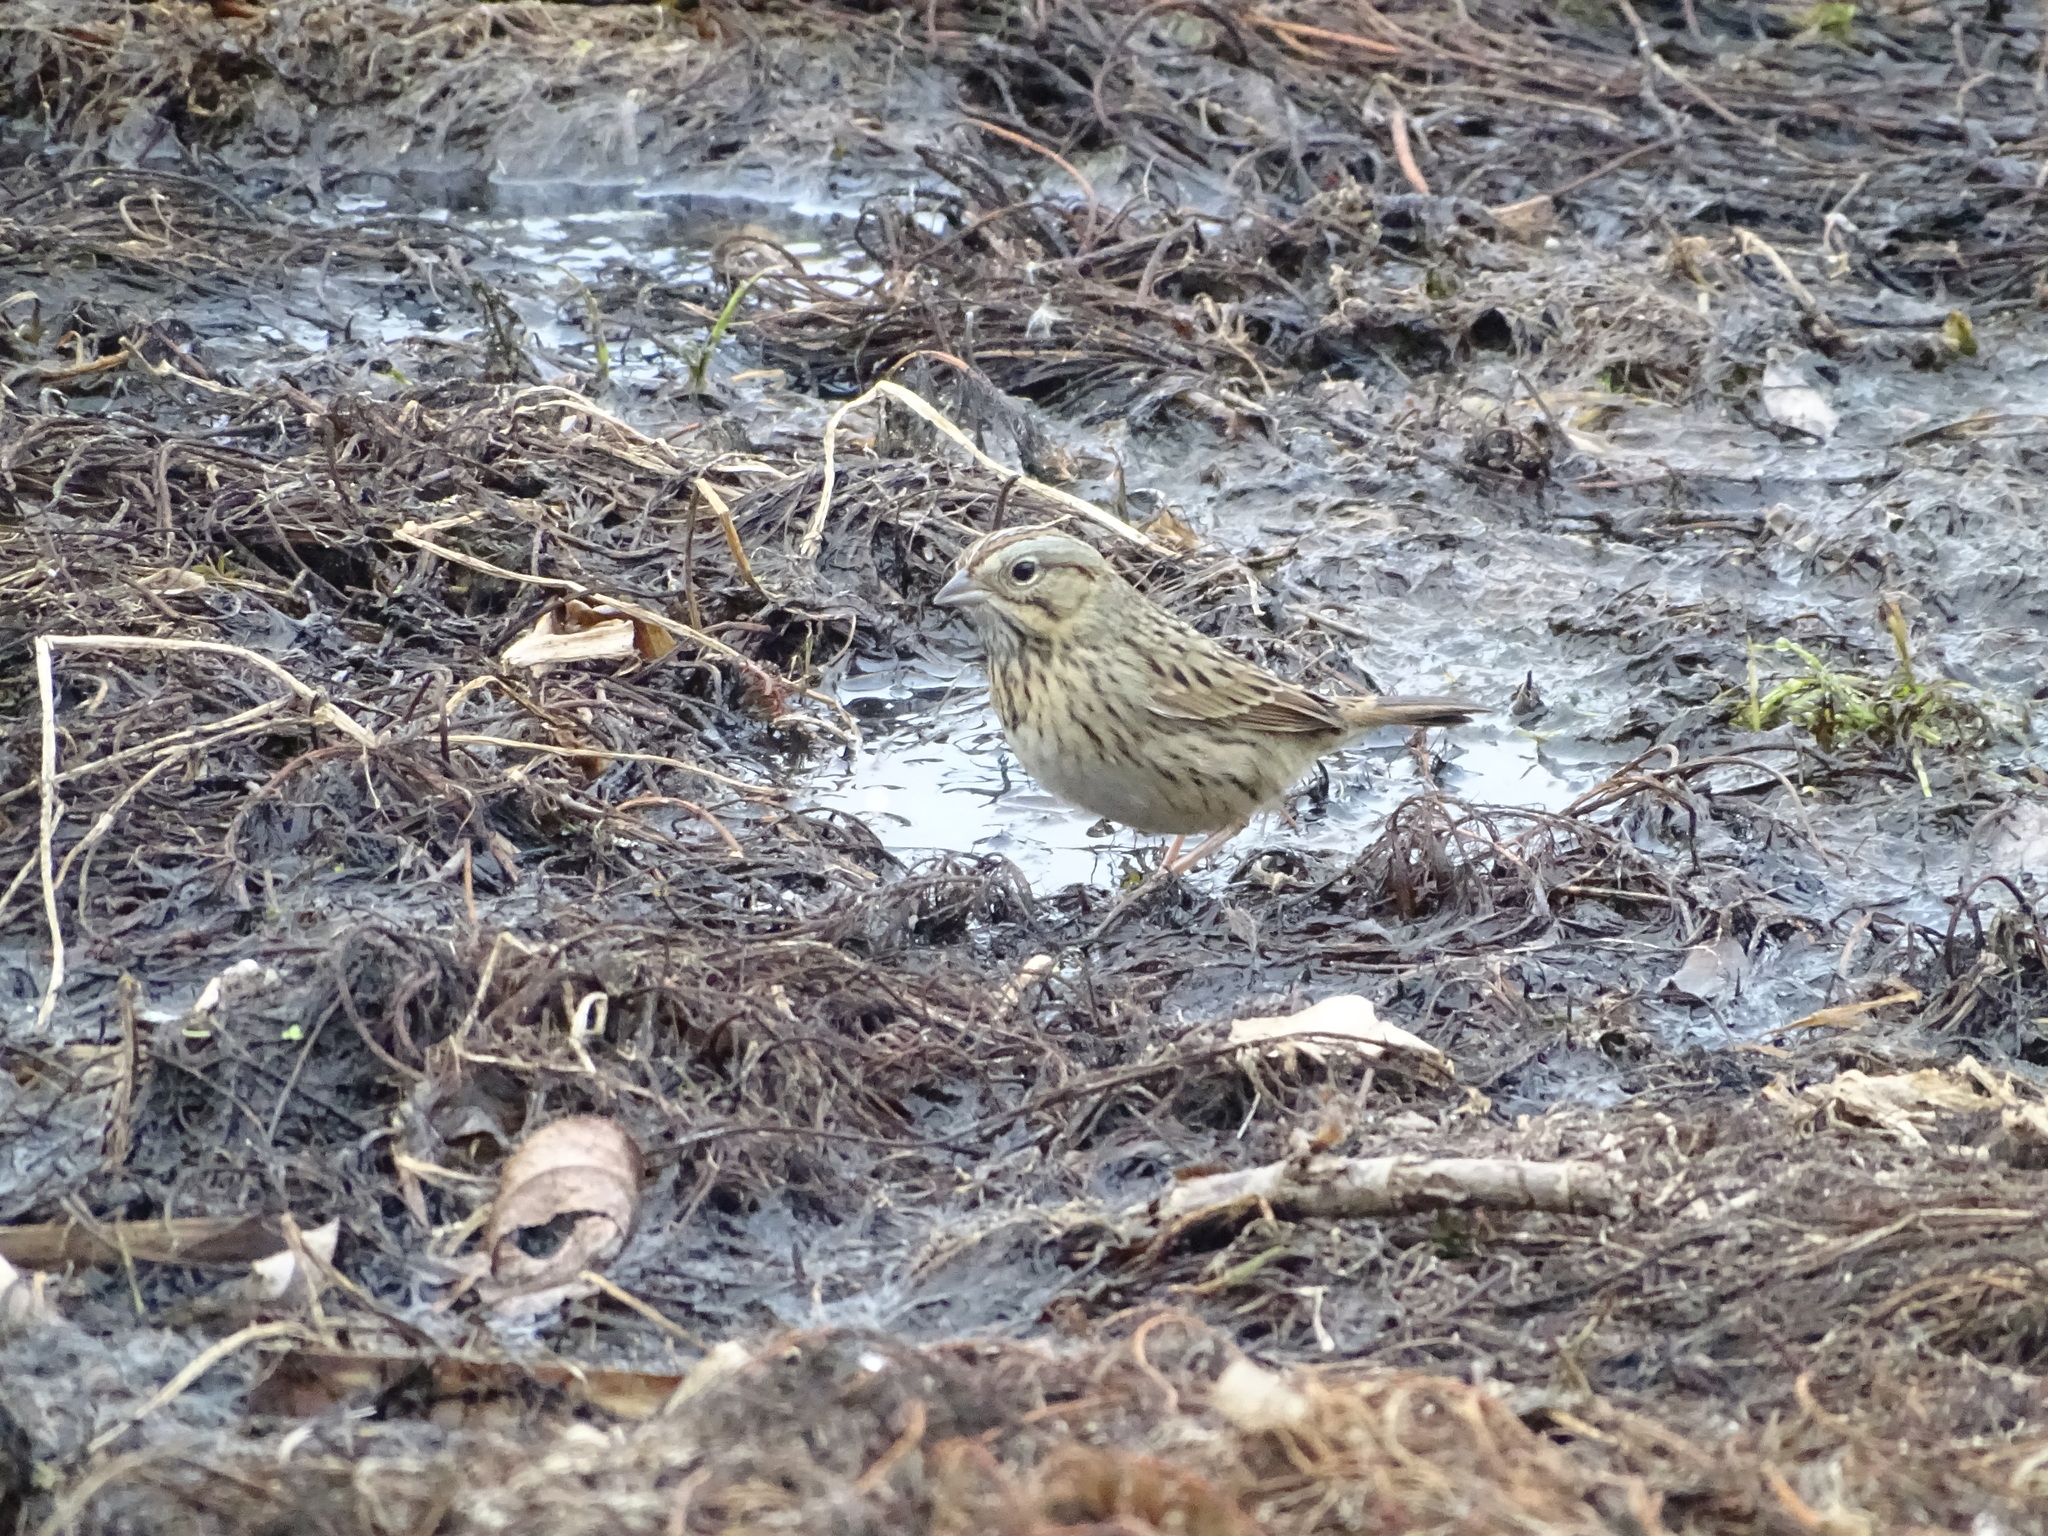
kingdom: Animalia
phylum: Chordata
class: Aves
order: Passeriformes
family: Passerellidae
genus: Melospiza
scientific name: Melospiza lincolnii
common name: Lincoln's sparrow
